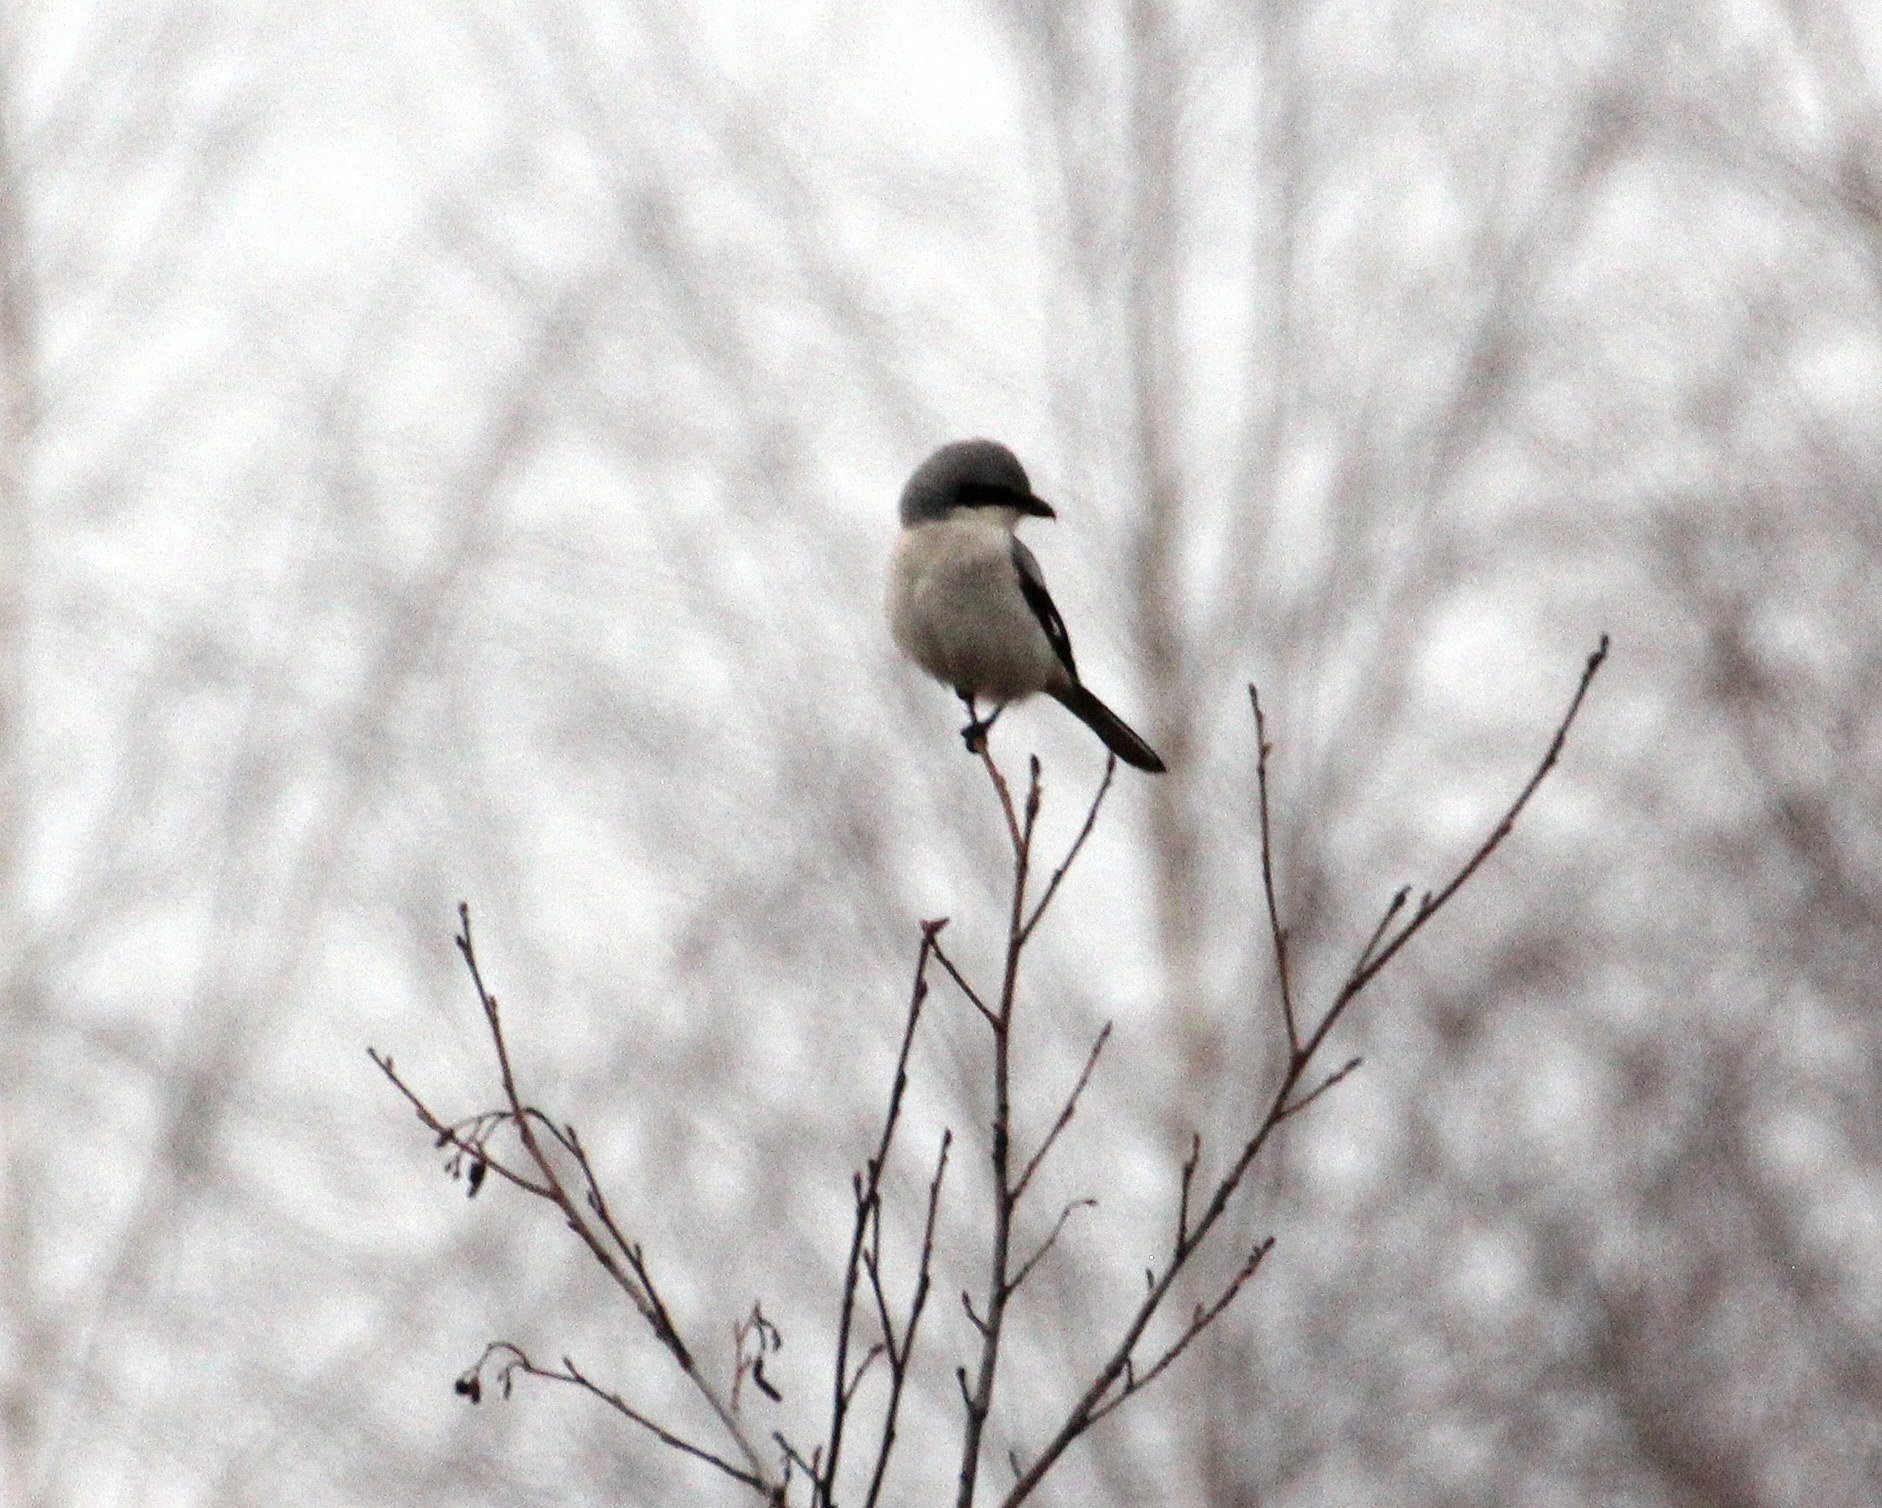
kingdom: Animalia
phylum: Chordata
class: Aves
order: Passeriformes
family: Laniidae
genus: Lanius
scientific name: Lanius excubitor
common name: Great grey shrike
